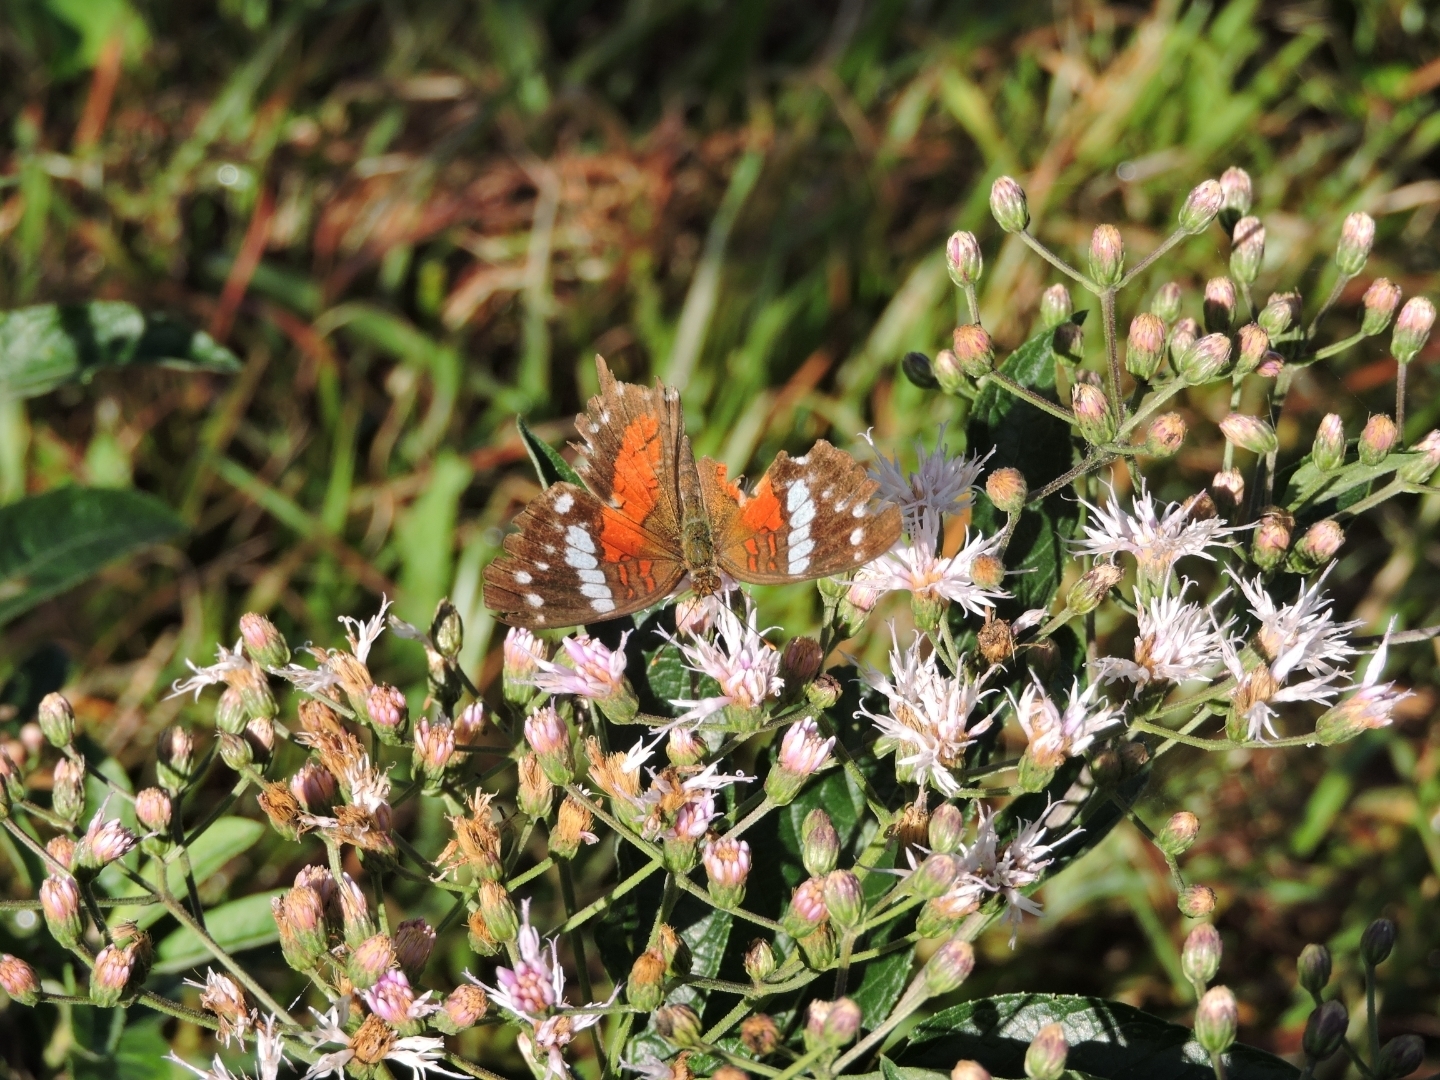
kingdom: Animalia
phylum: Arthropoda
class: Insecta
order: Lepidoptera
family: Nymphalidae
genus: Anartia
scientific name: Anartia amathea
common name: Red peacock
